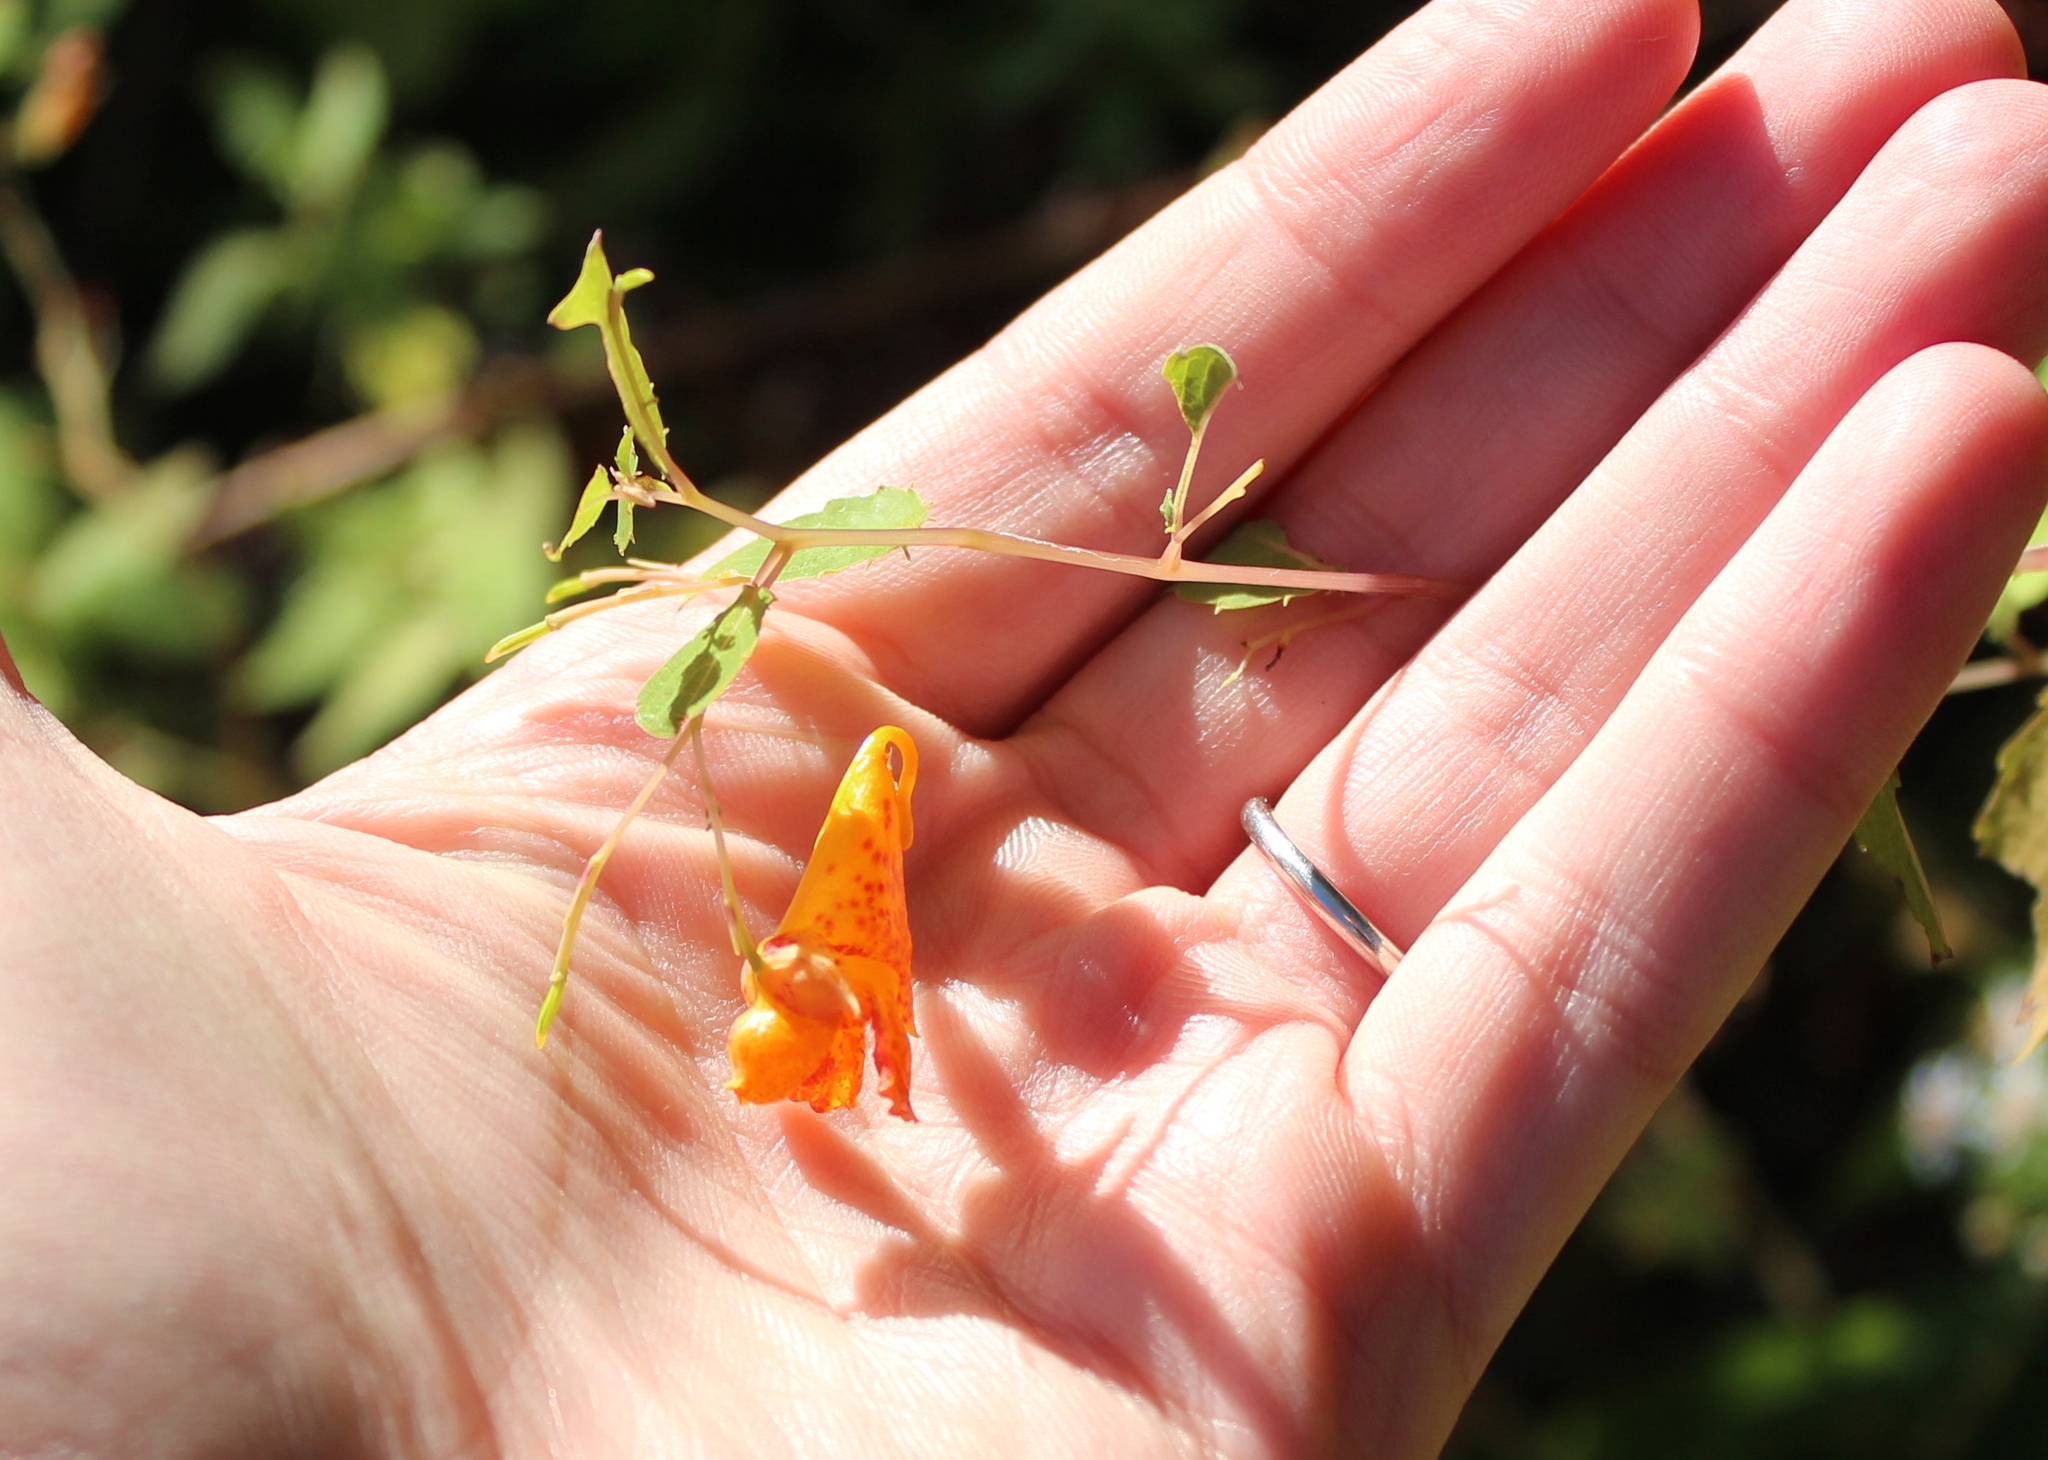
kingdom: Plantae
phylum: Tracheophyta
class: Magnoliopsida
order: Ericales
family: Balsaminaceae
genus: Impatiens
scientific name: Impatiens capensis
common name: Orange balsam
